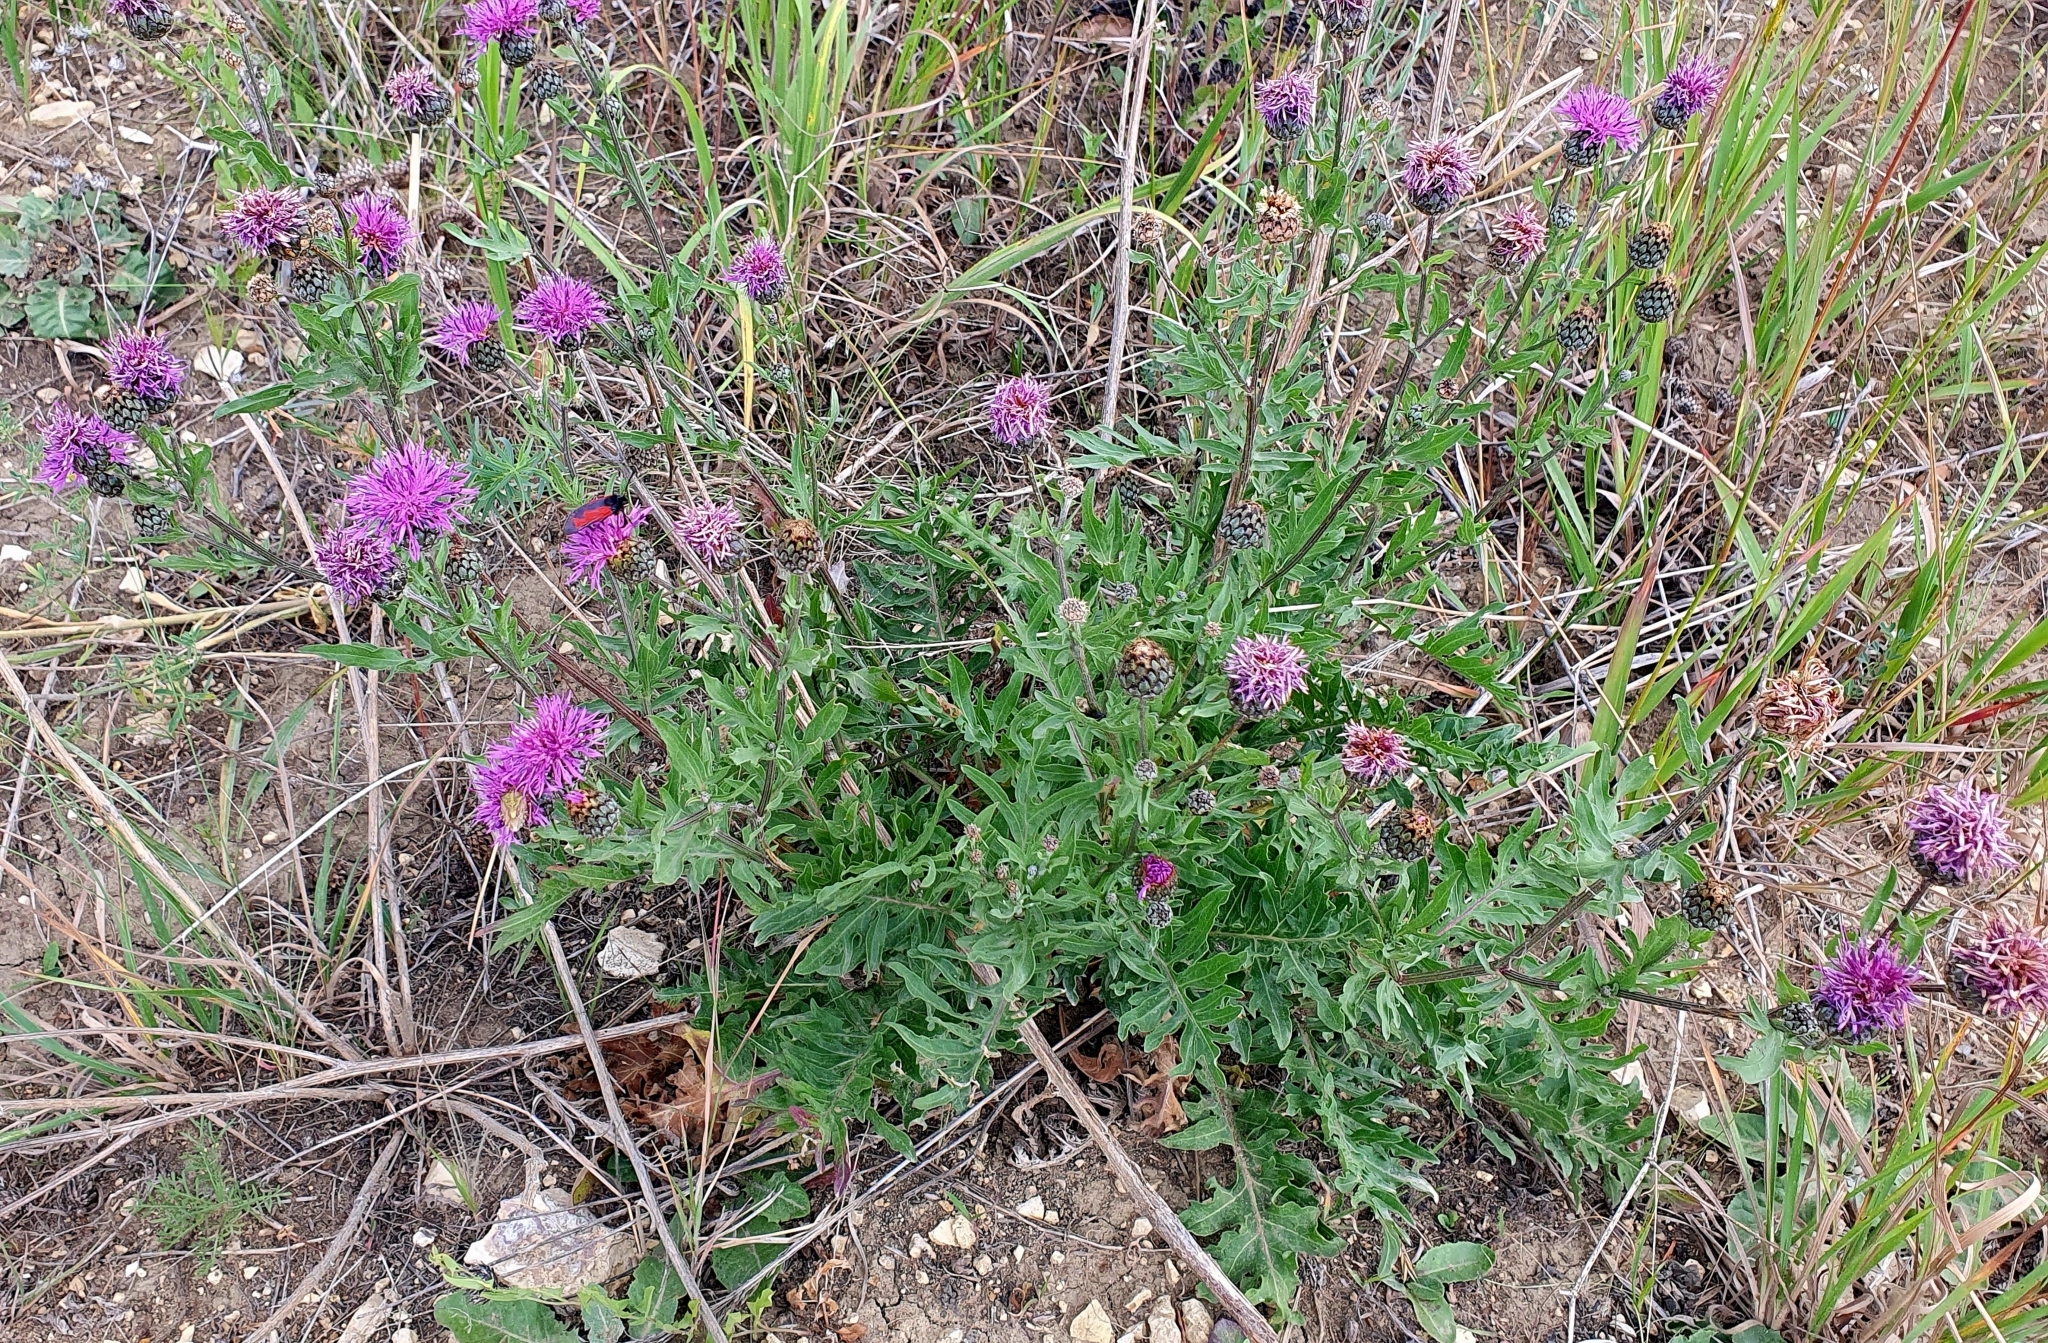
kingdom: Plantae
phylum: Tracheophyta
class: Magnoliopsida
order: Asterales
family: Asteraceae
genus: Centaurea
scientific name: Centaurea scabiosa
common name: Greater knapweed
